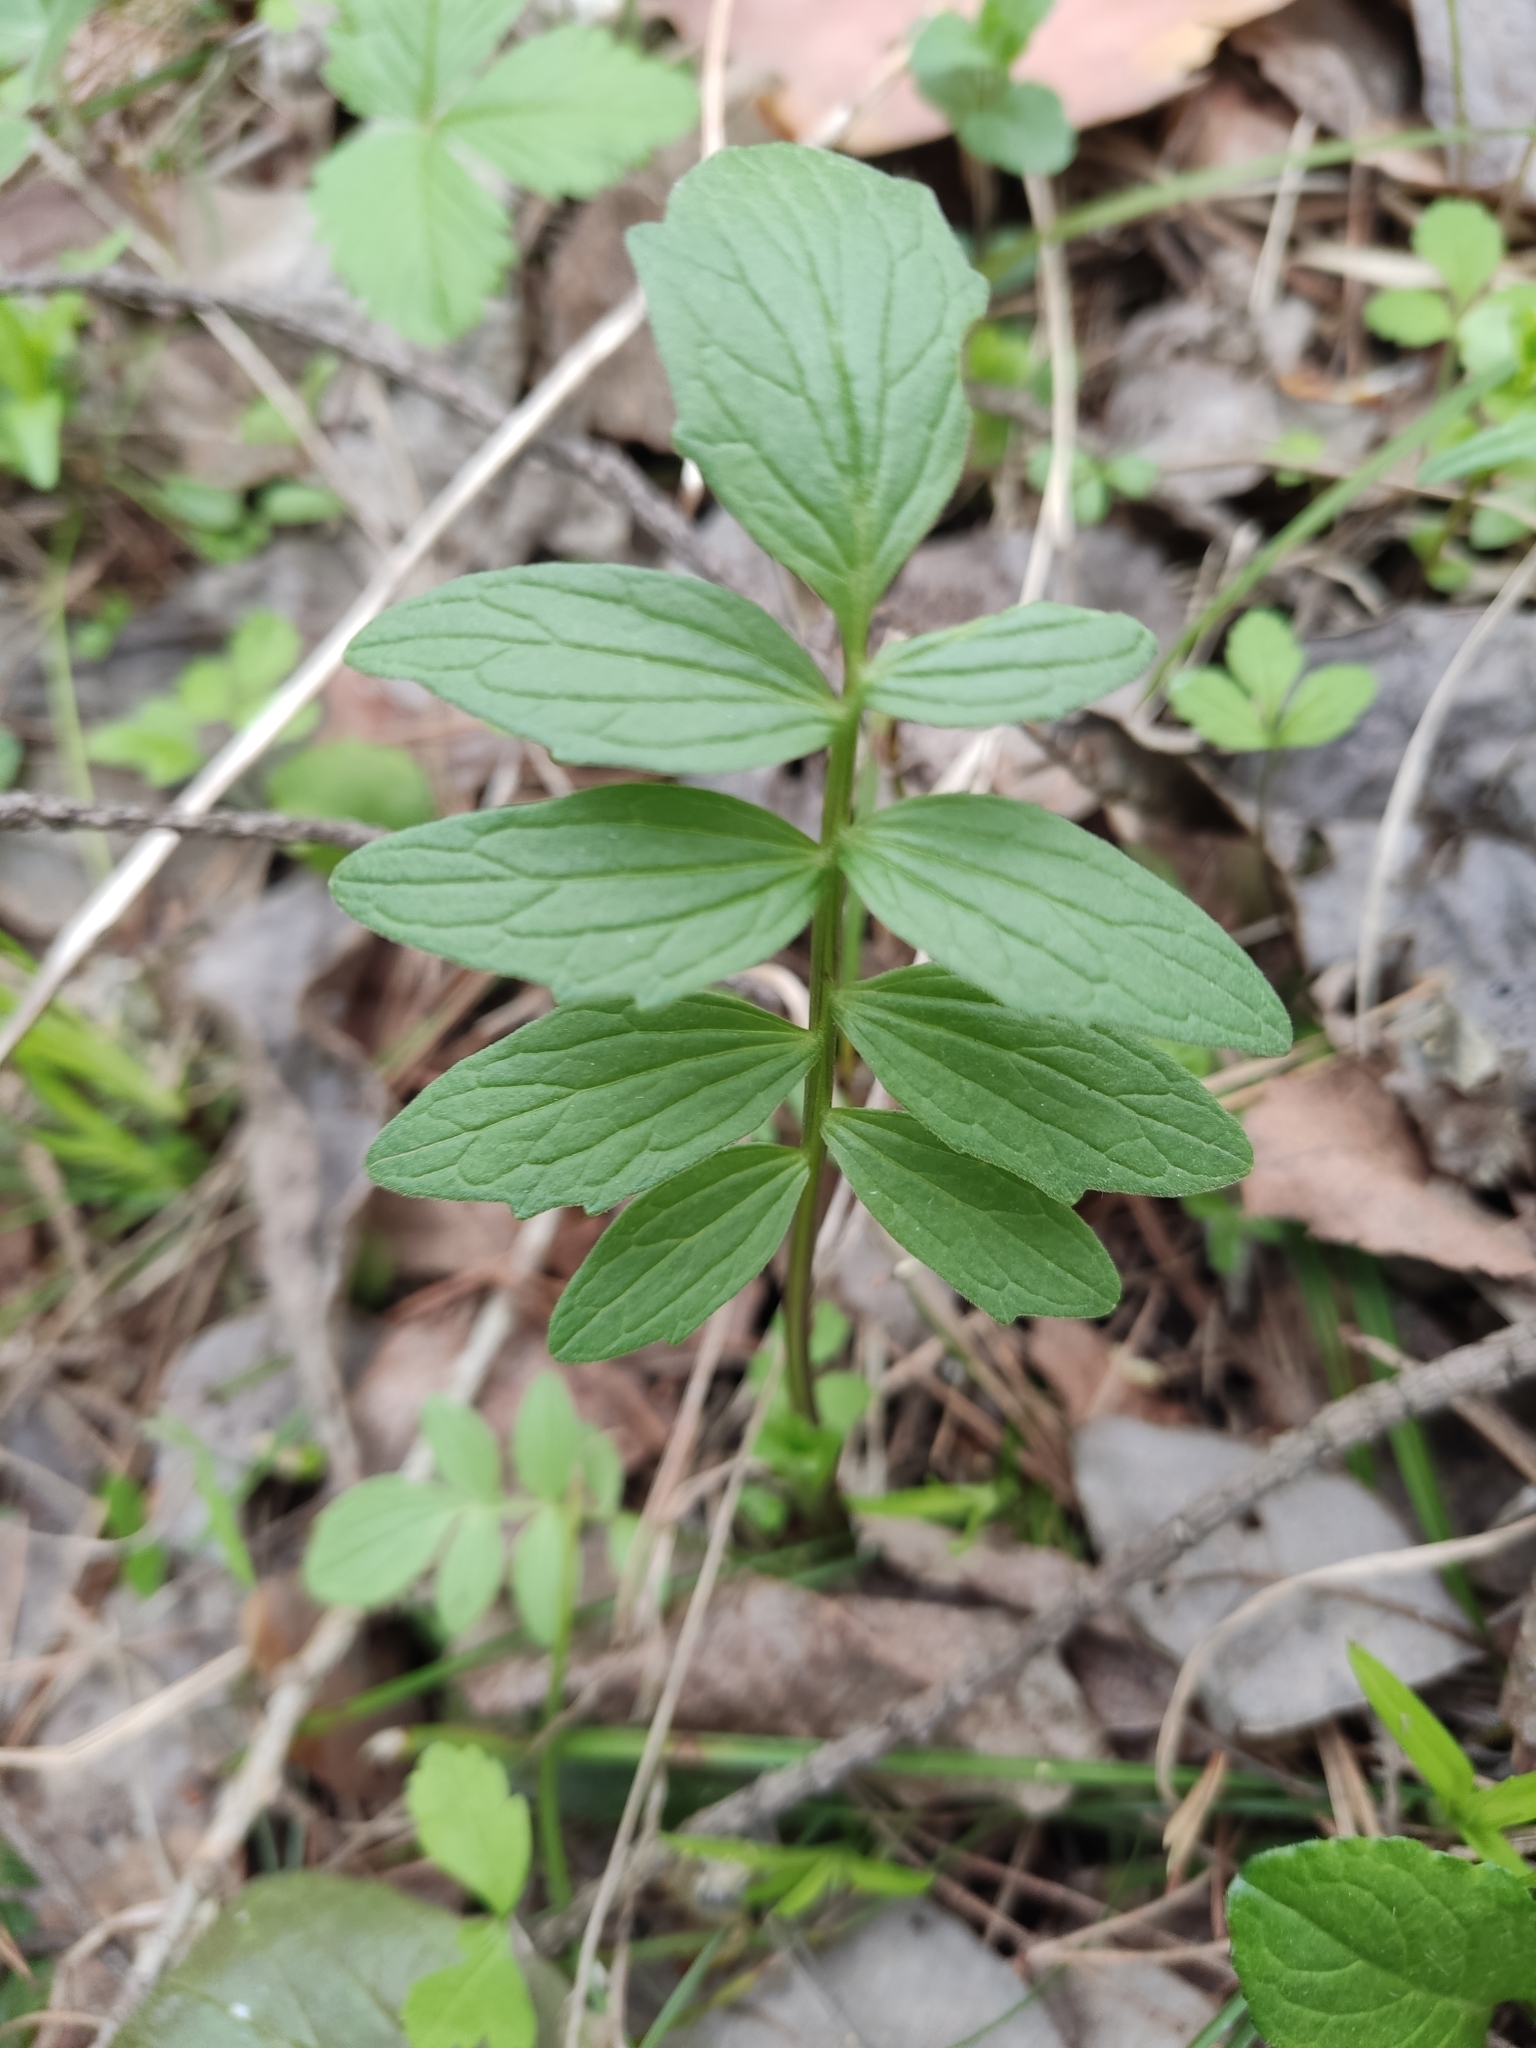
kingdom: Plantae
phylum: Tracheophyta
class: Magnoliopsida
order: Dipsacales
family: Caprifoliaceae
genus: Valeriana
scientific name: Valeriana officinalis
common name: Common valerian
